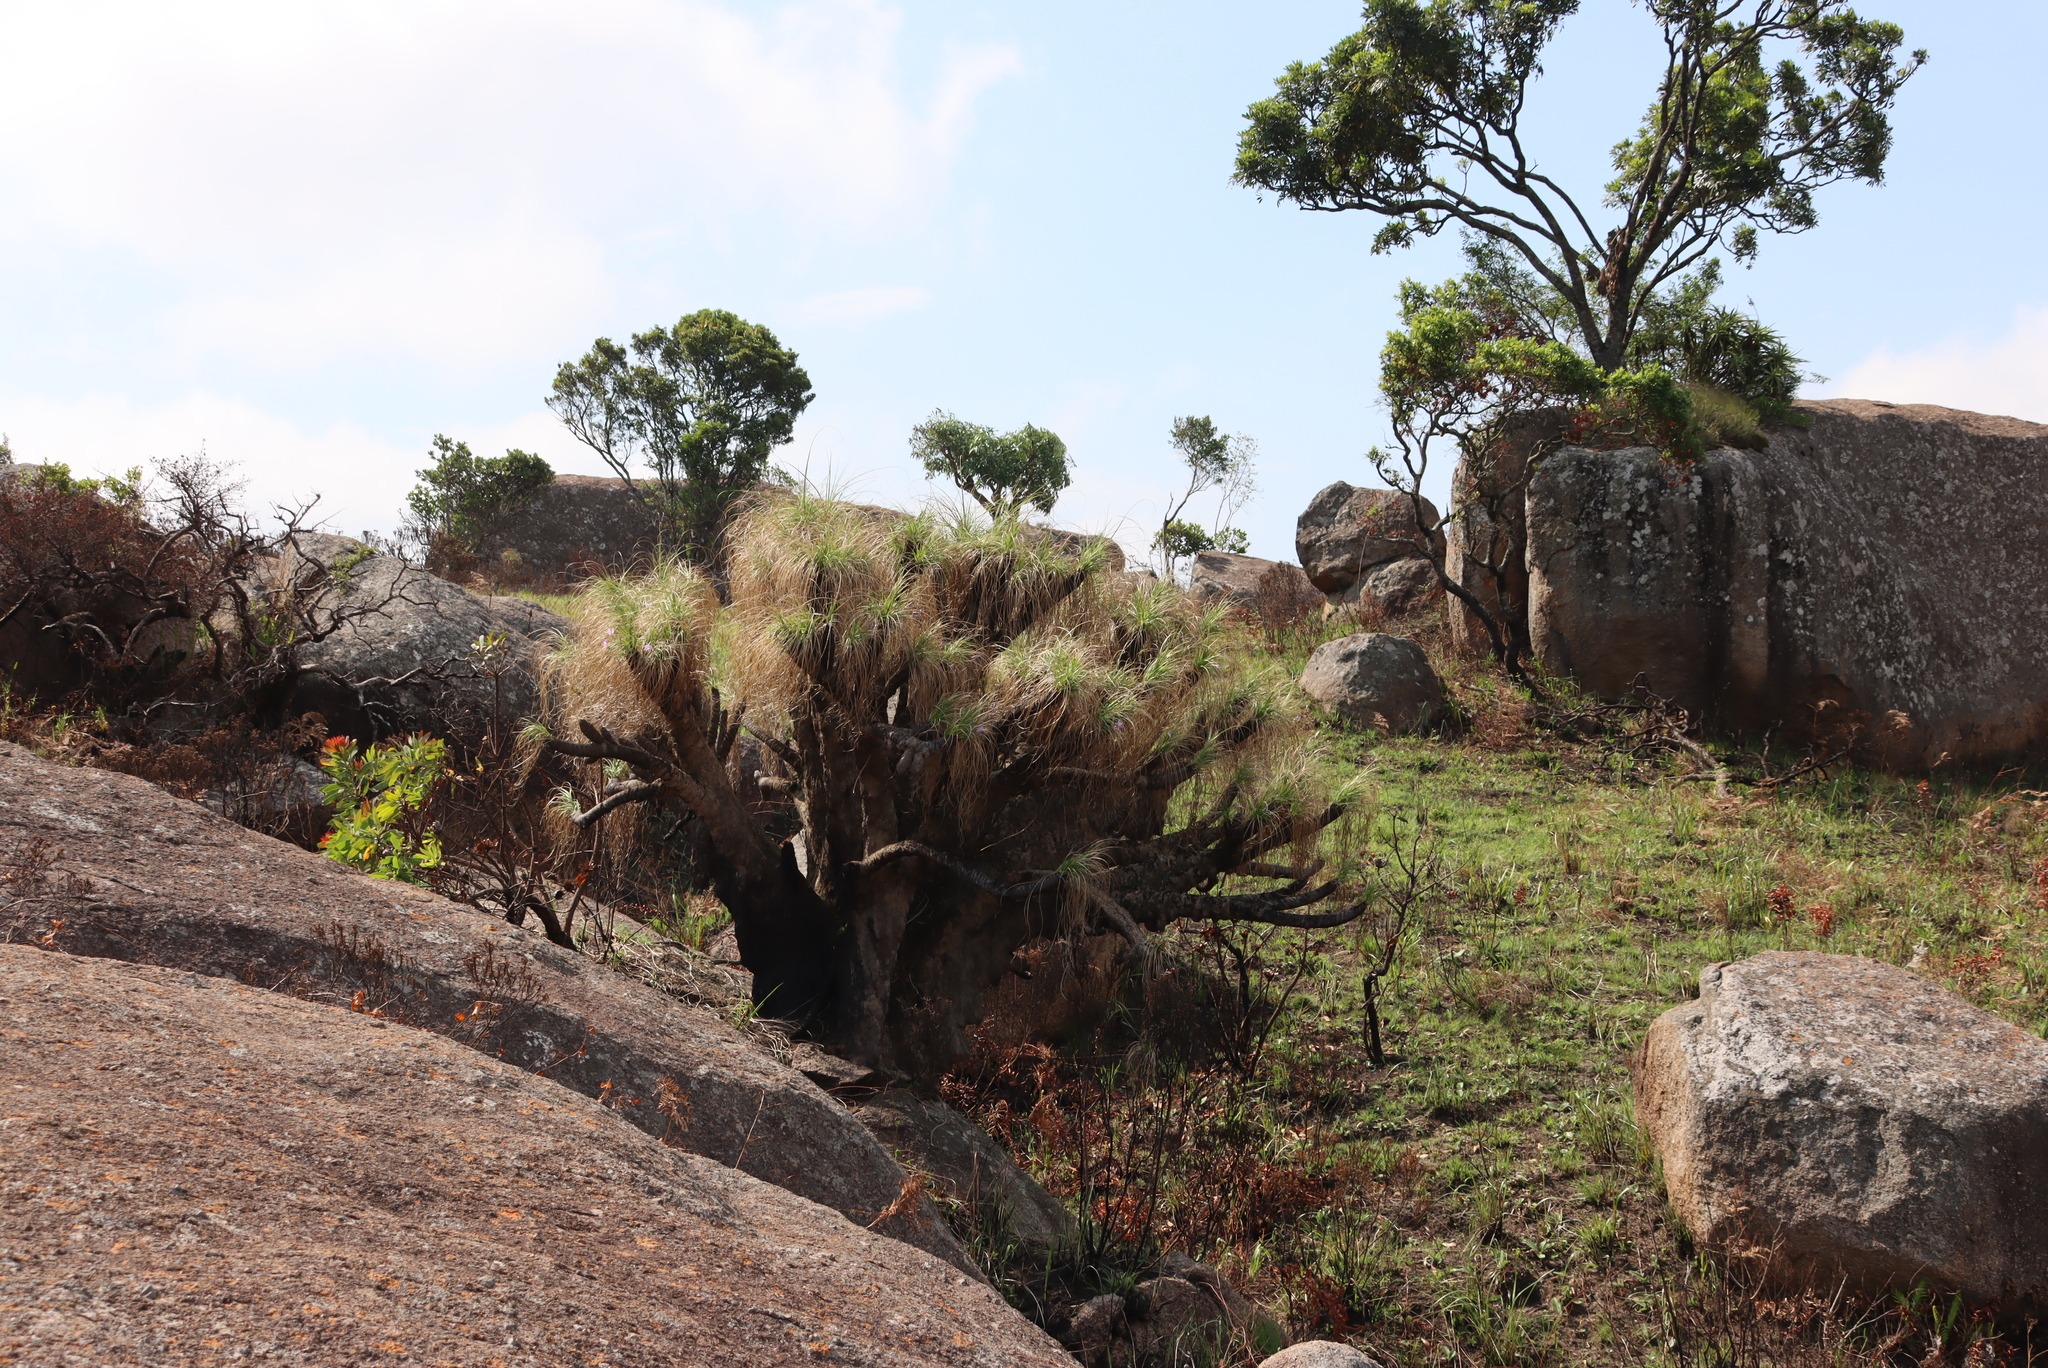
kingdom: Plantae
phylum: Tracheophyta
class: Liliopsida
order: Pandanales
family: Velloziaceae
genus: Xerophyta
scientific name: Xerophyta retinervis
